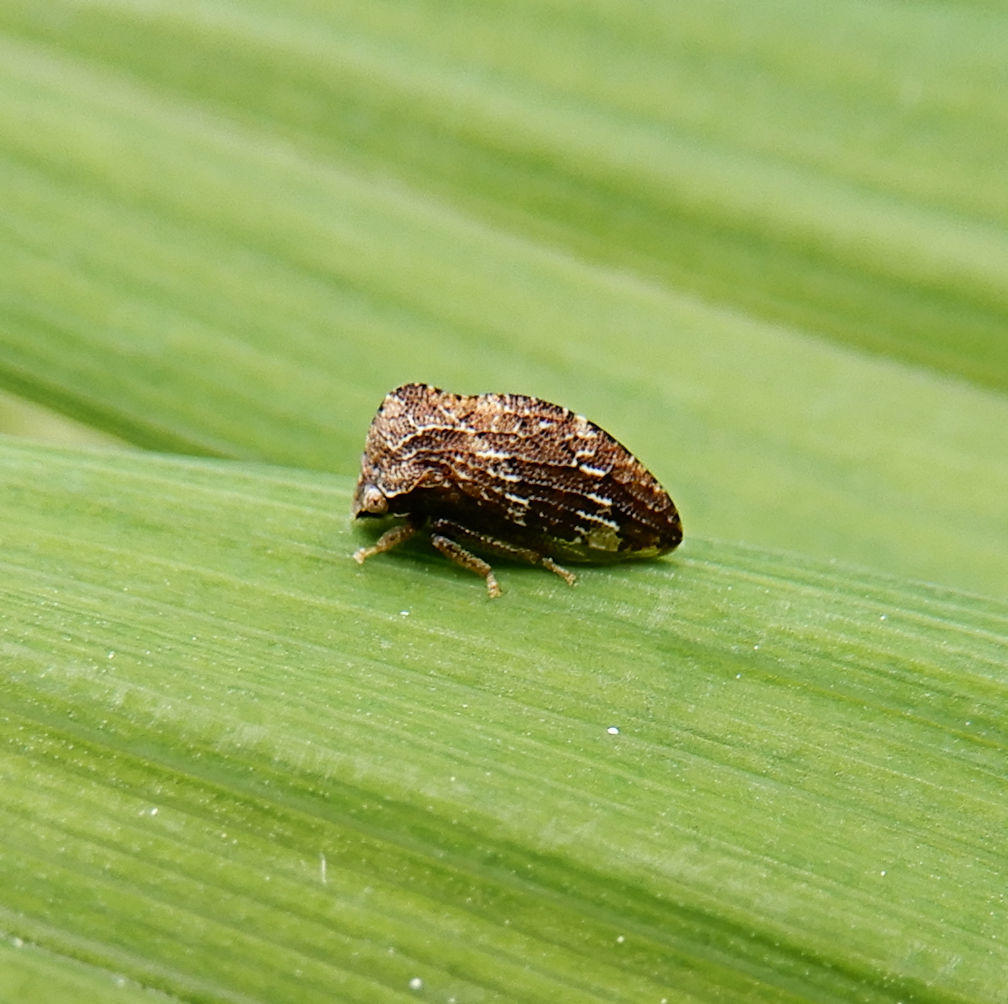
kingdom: Animalia
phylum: Arthropoda
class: Insecta
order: Hemiptera
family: Membracidae
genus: Publilia
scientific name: Publilia concava
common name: Aster treehopper
